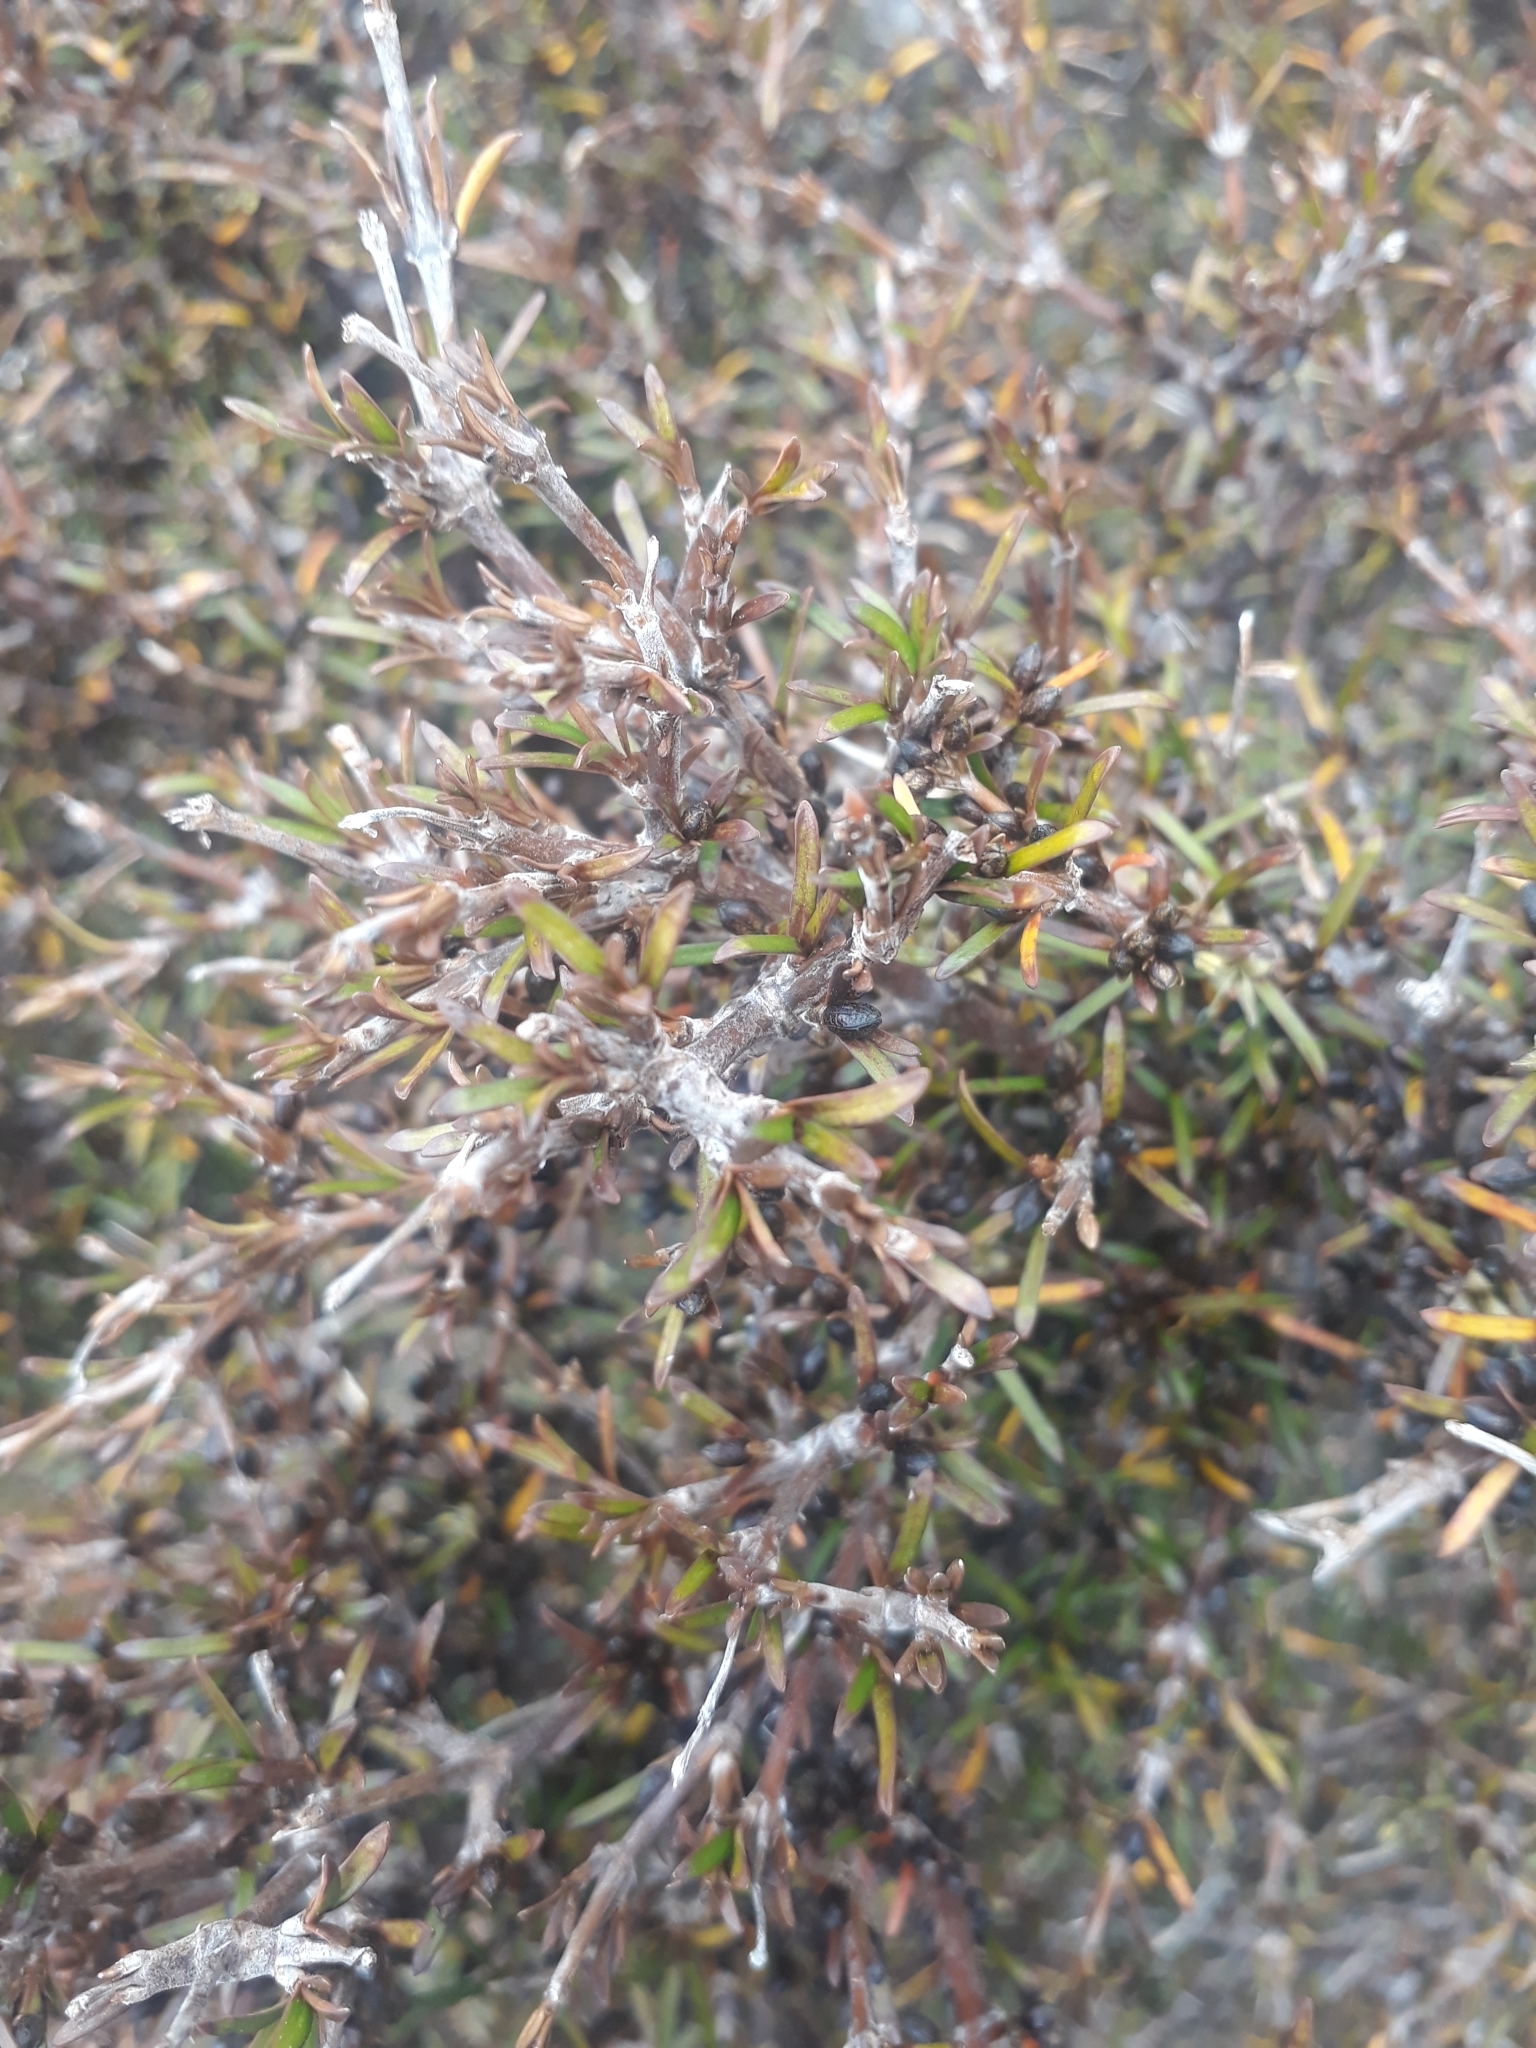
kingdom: Plantae
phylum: Tracheophyta
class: Magnoliopsida
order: Gentianales
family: Rubiaceae
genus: Coprosma
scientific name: Coprosma rugosa
